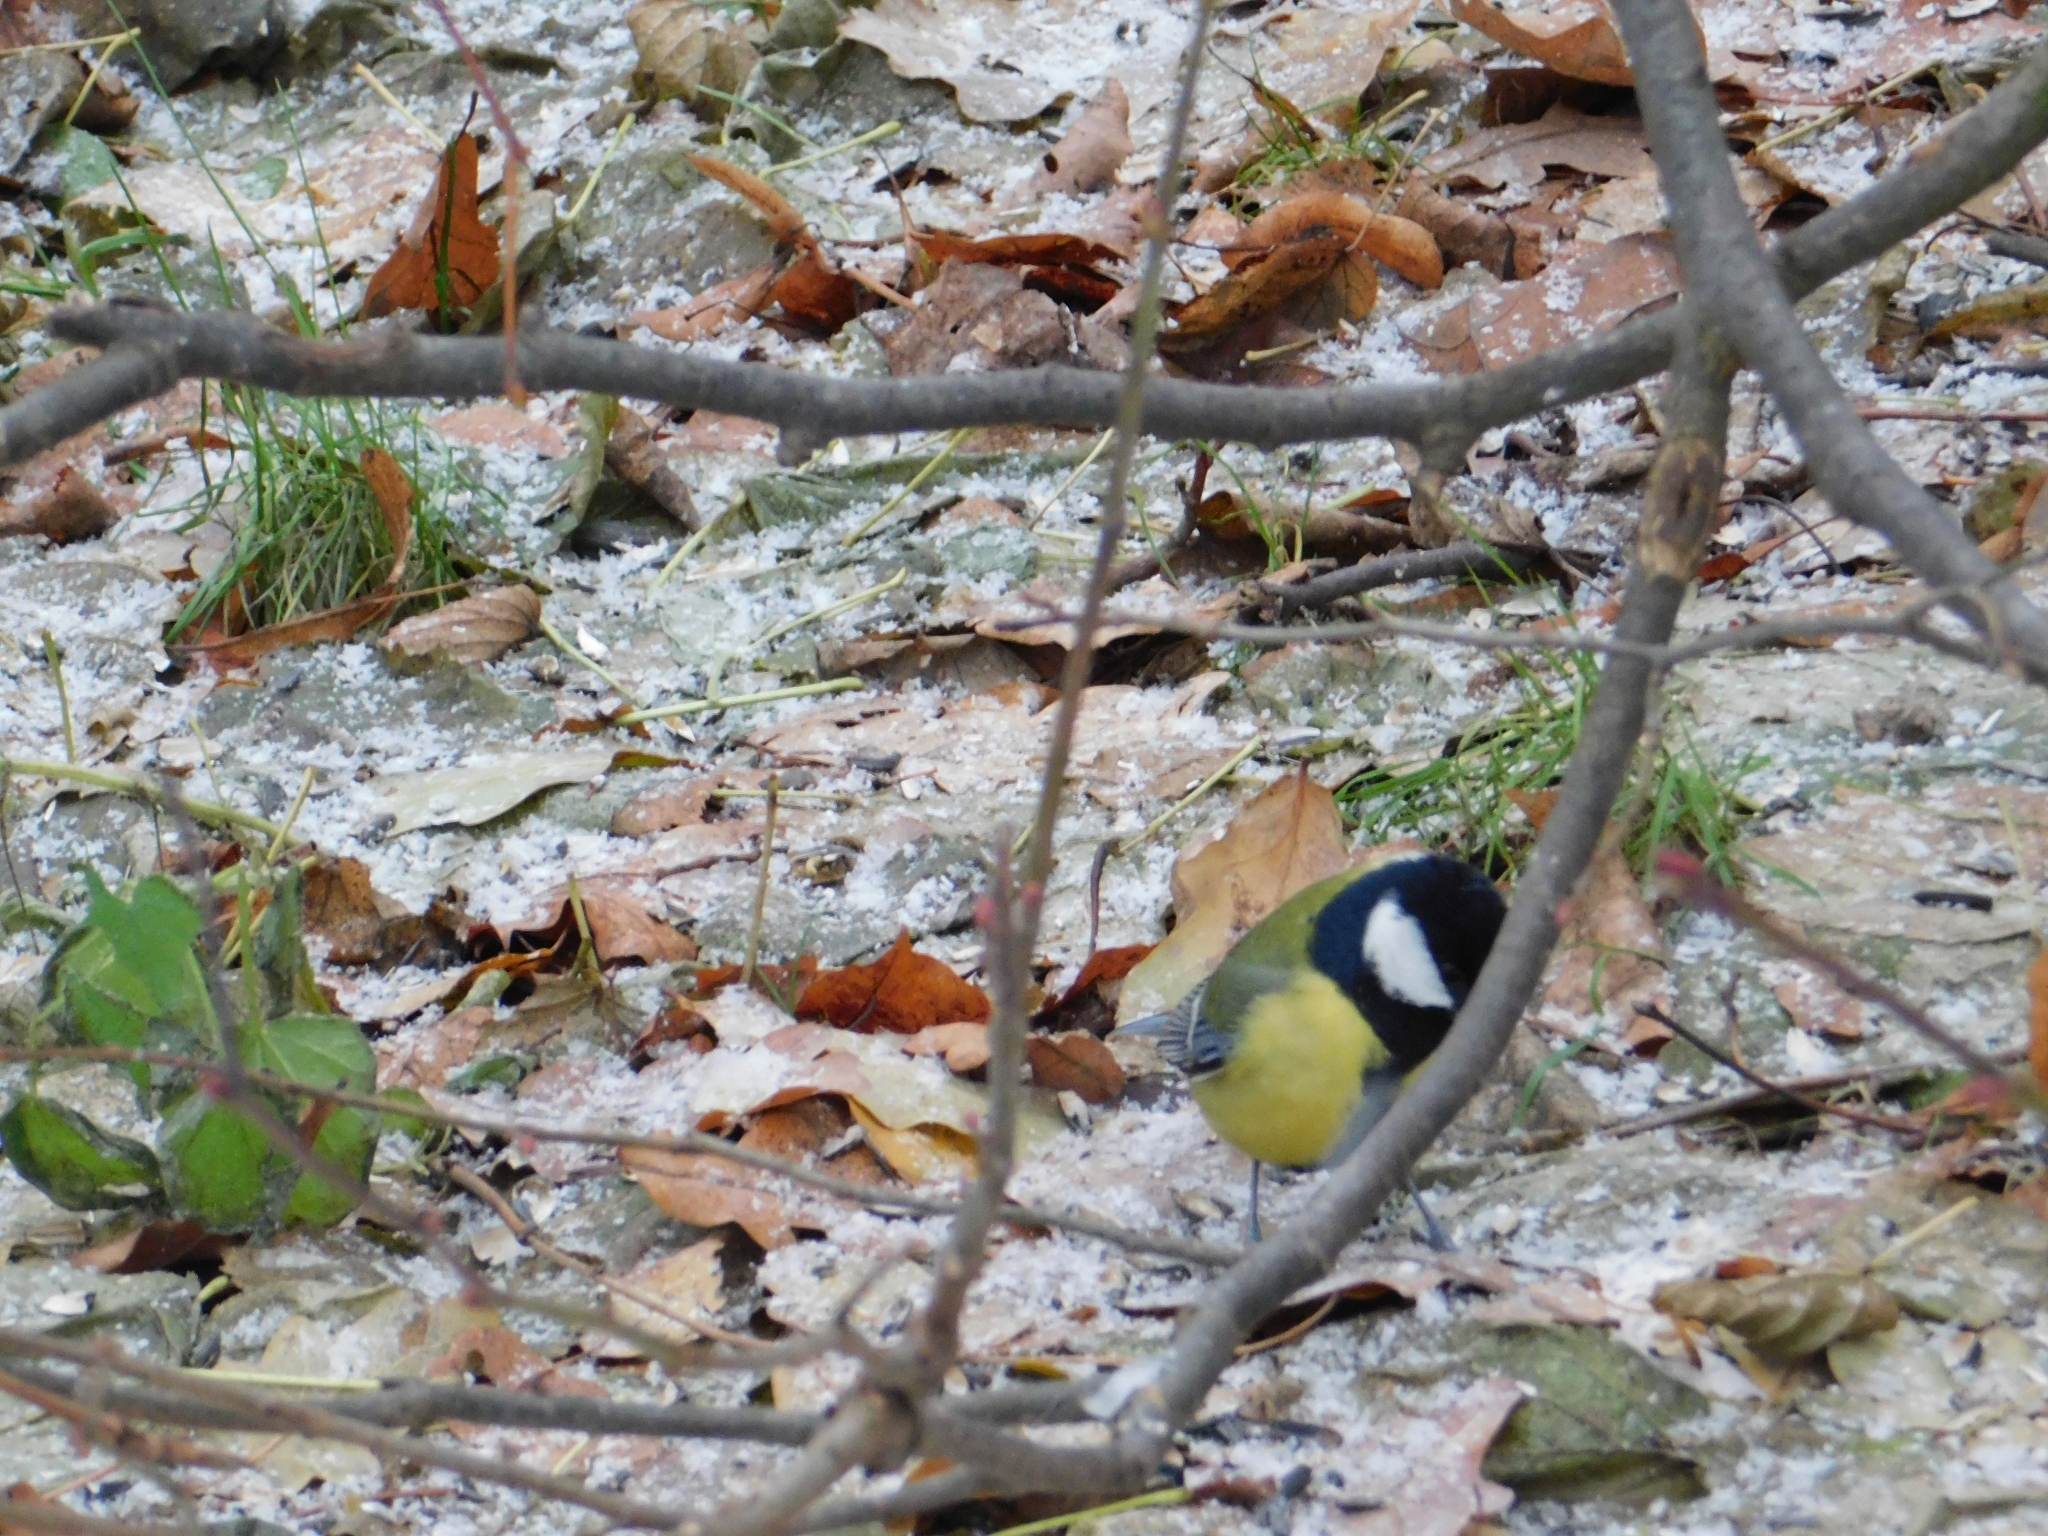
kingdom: Animalia
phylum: Chordata
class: Aves
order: Passeriformes
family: Paridae
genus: Parus
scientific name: Parus major
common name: Great tit
